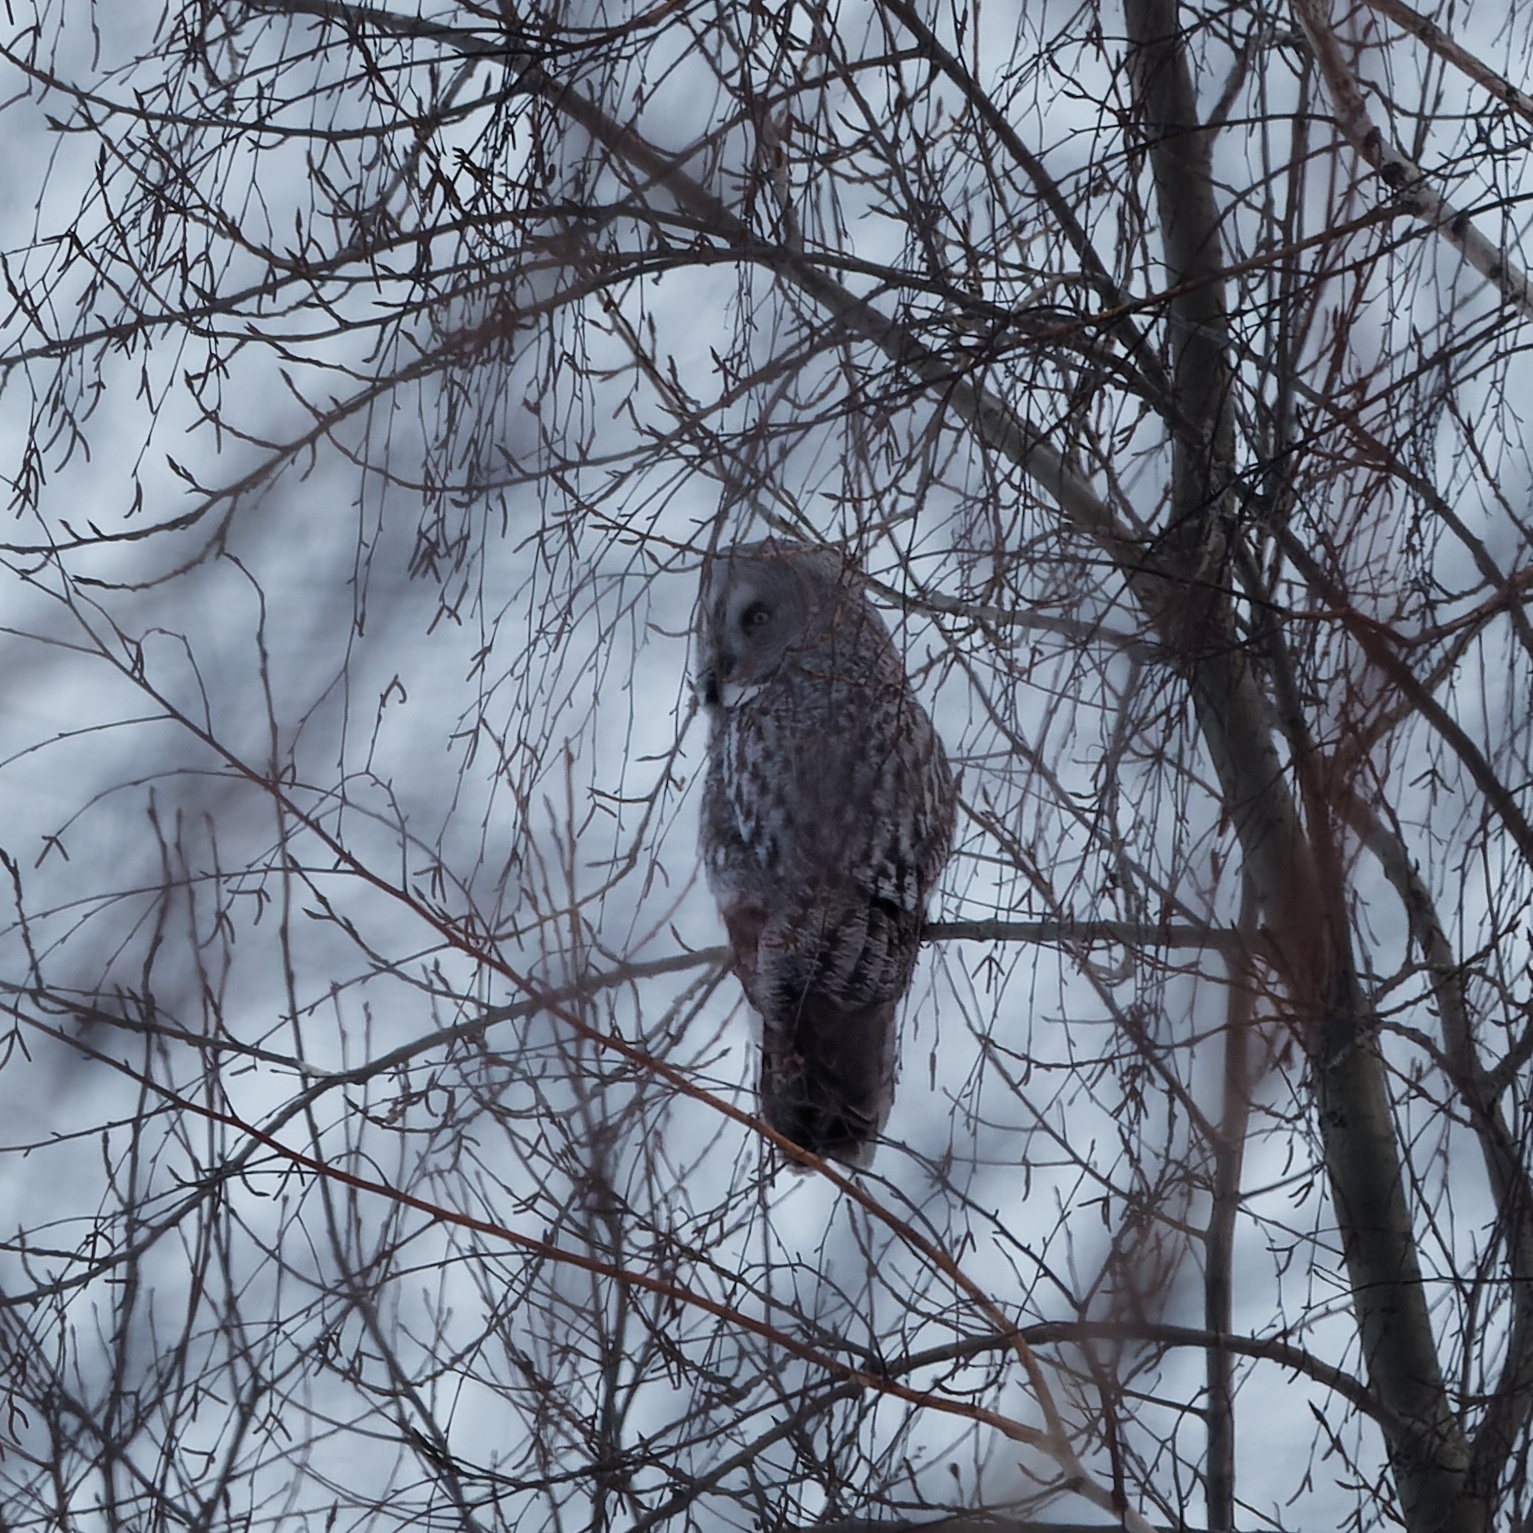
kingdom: Animalia
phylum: Chordata
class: Aves
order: Strigiformes
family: Strigidae
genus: Strix
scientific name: Strix nebulosa
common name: Great grey owl
